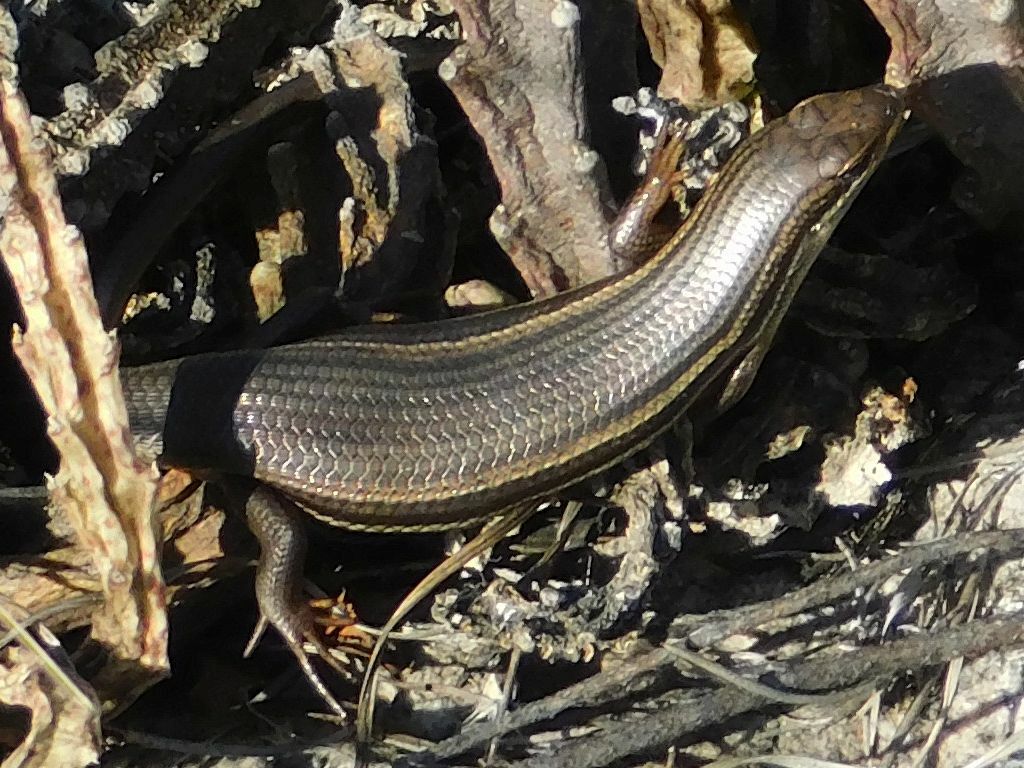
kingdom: Animalia
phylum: Chordata
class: Squamata
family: Scincidae
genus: Trachylepis
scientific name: Trachylepis homalocephala
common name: Red-sided skink
